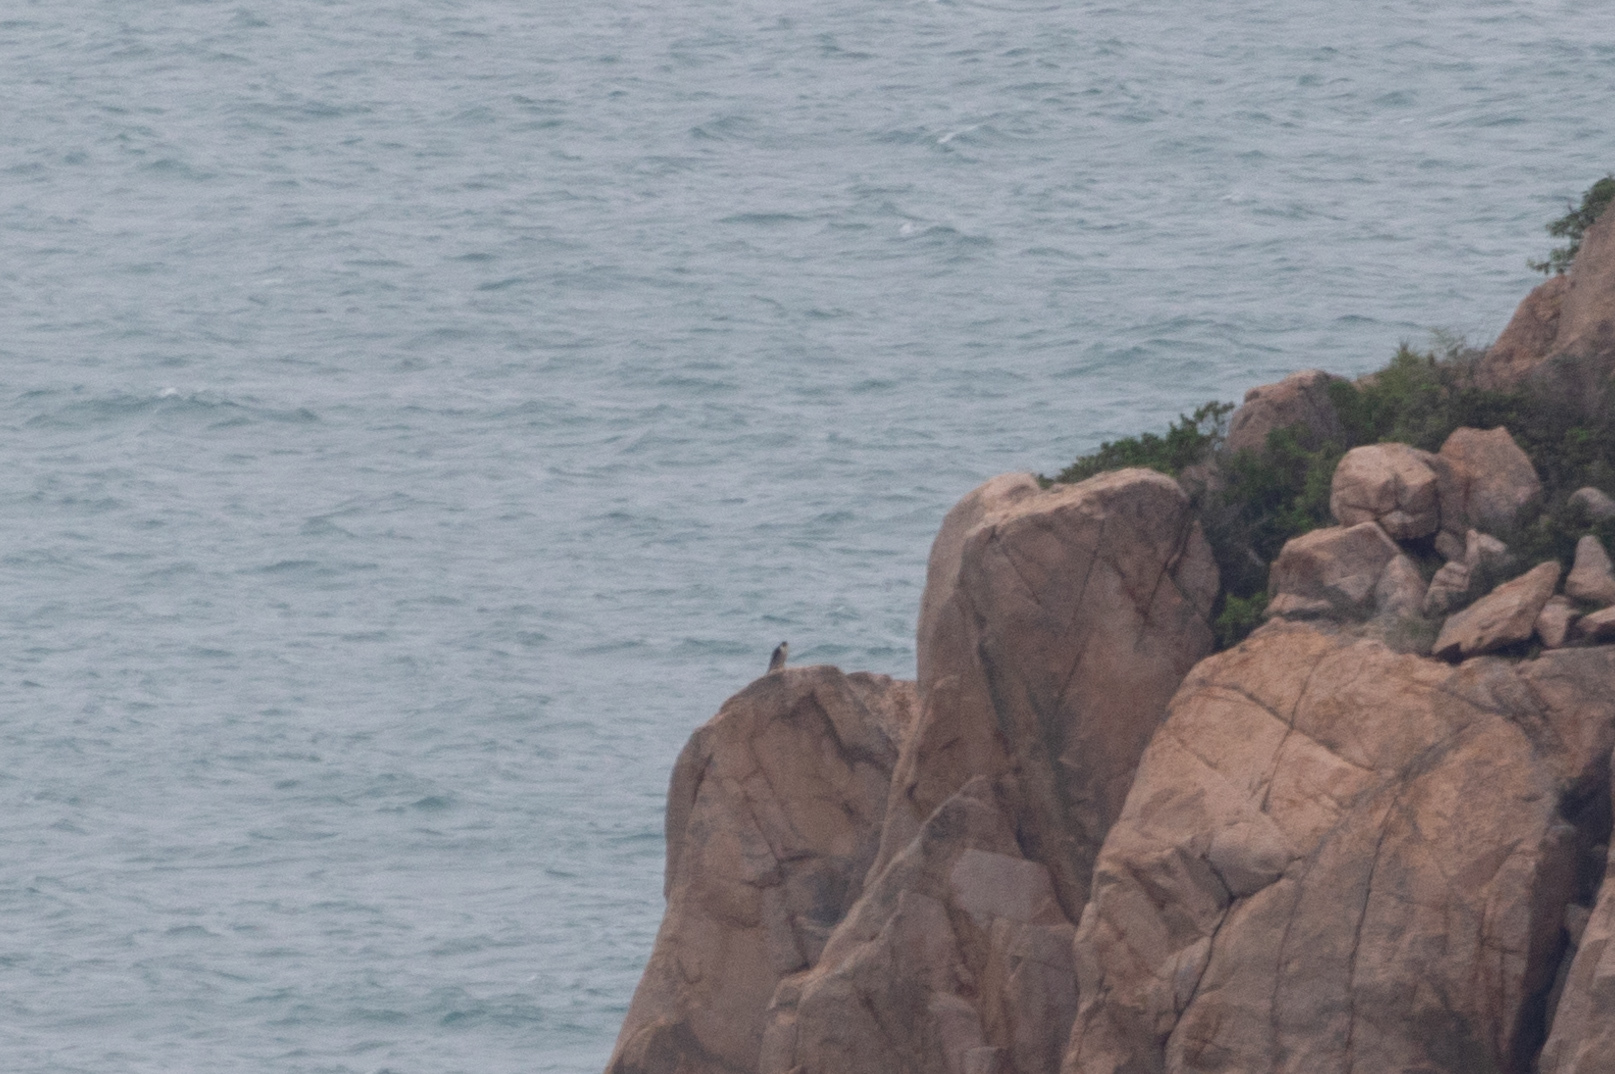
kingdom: Animalia
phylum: Chordata
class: Aves
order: Falconiformes
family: Falconidae
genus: Falco
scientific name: Falco peregrinus
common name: Peregrine falcon
